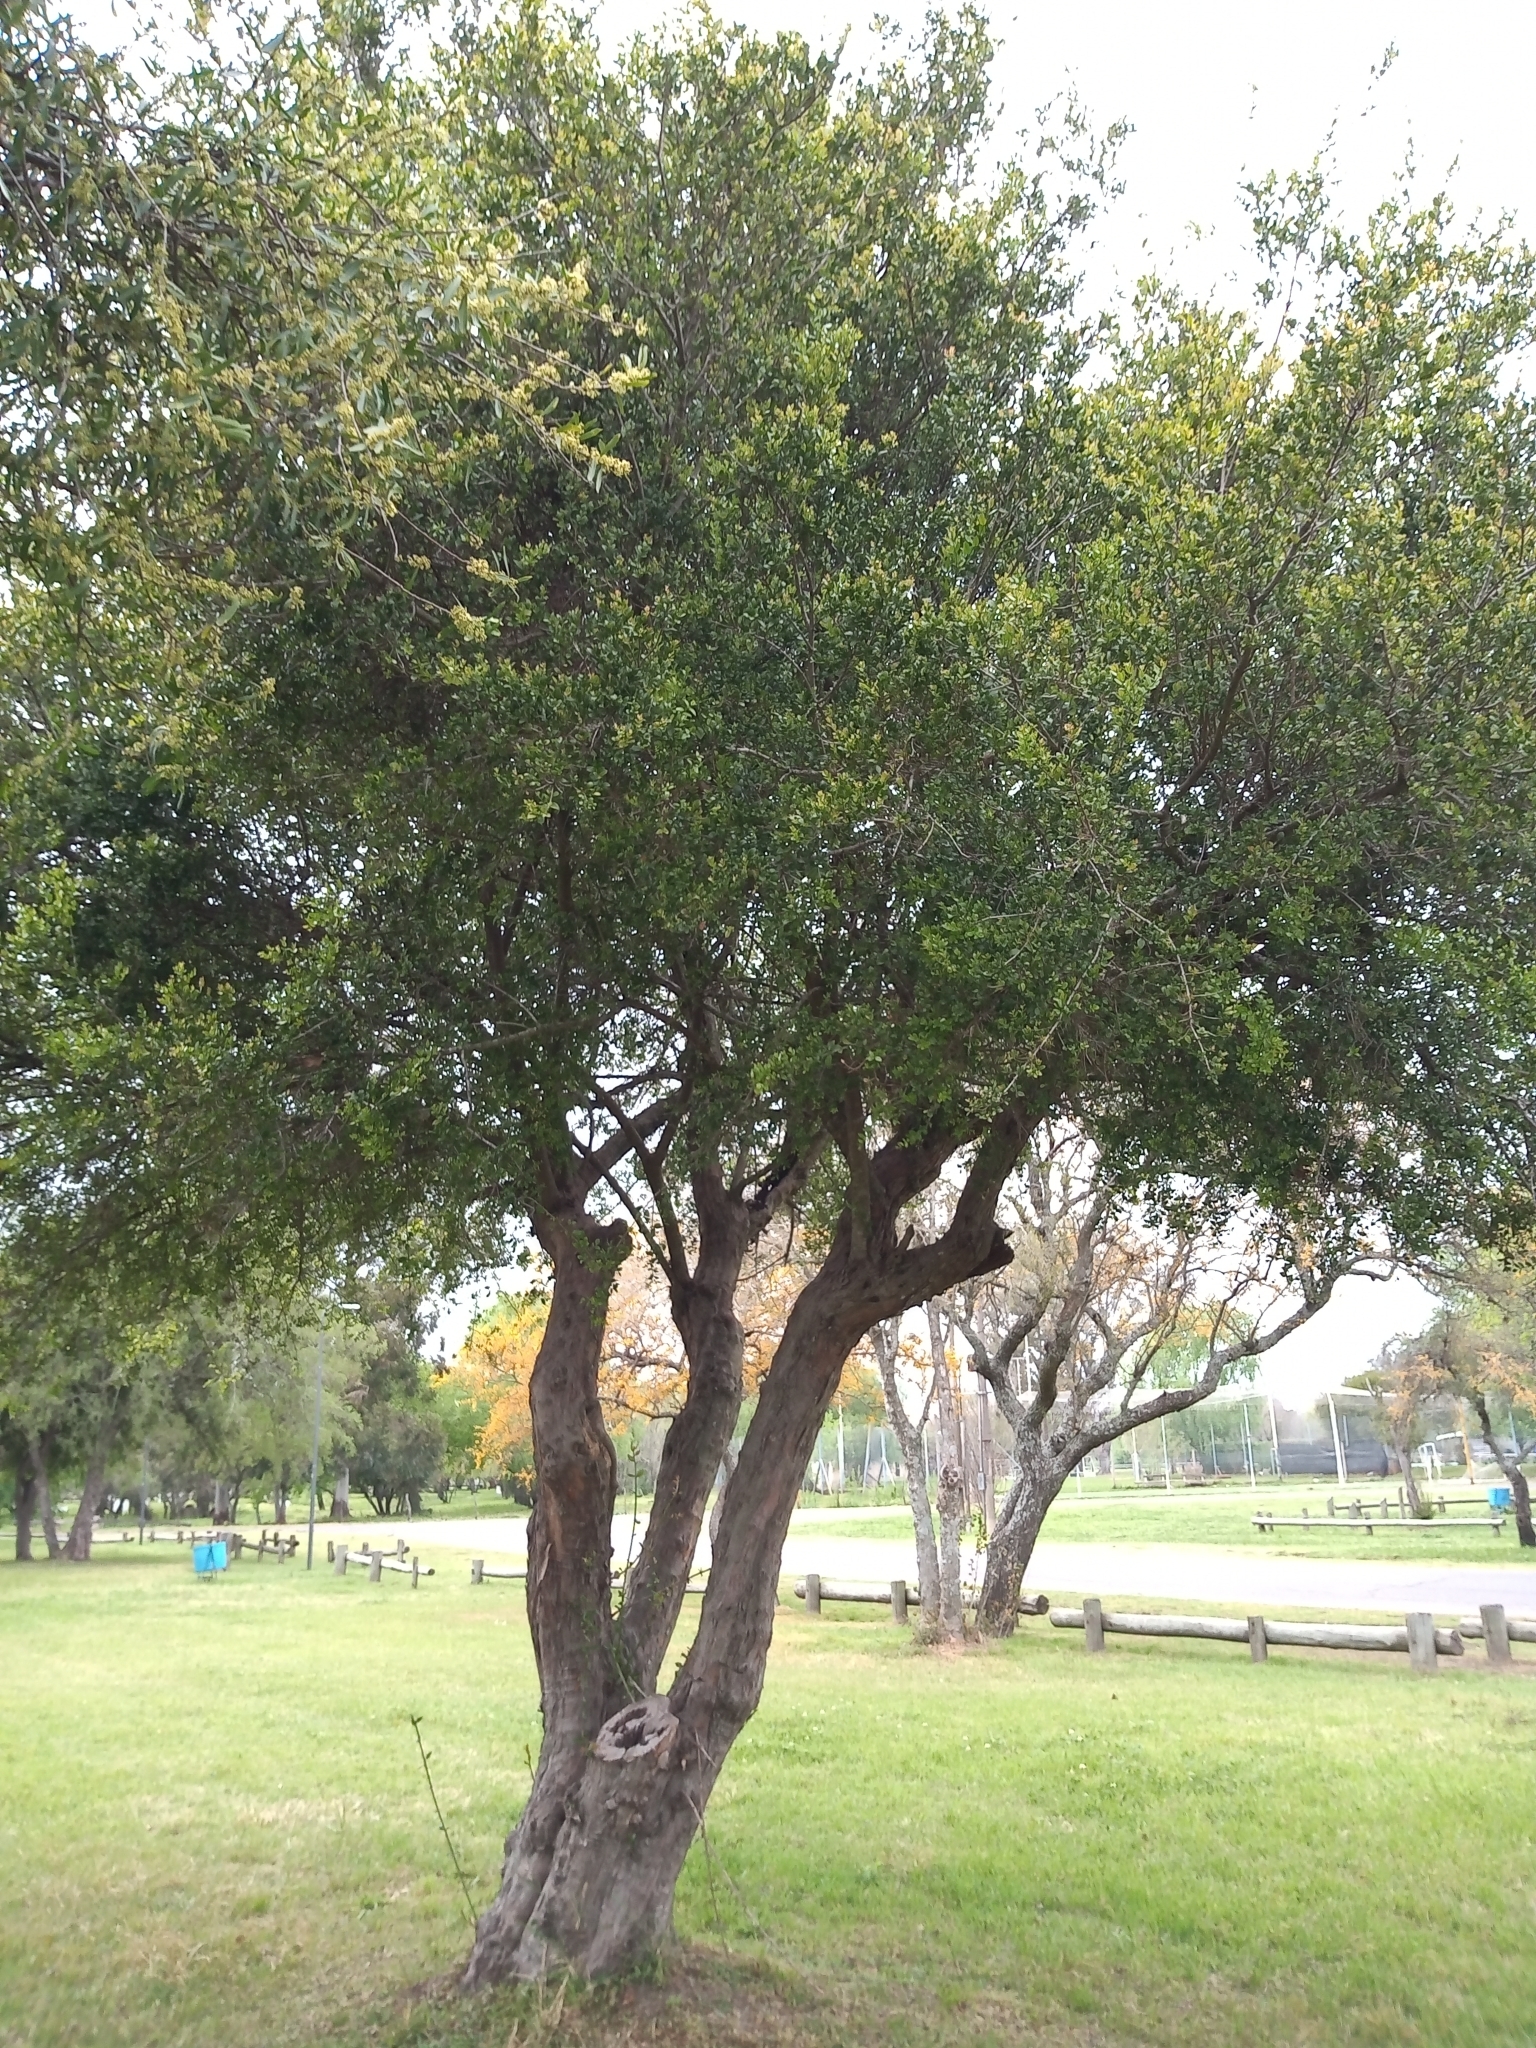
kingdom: Plantae
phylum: Tracheophyta
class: Magnoliopsida
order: Rosales
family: Rhamnaceae
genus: Scutia
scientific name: Scutia buxifolia
